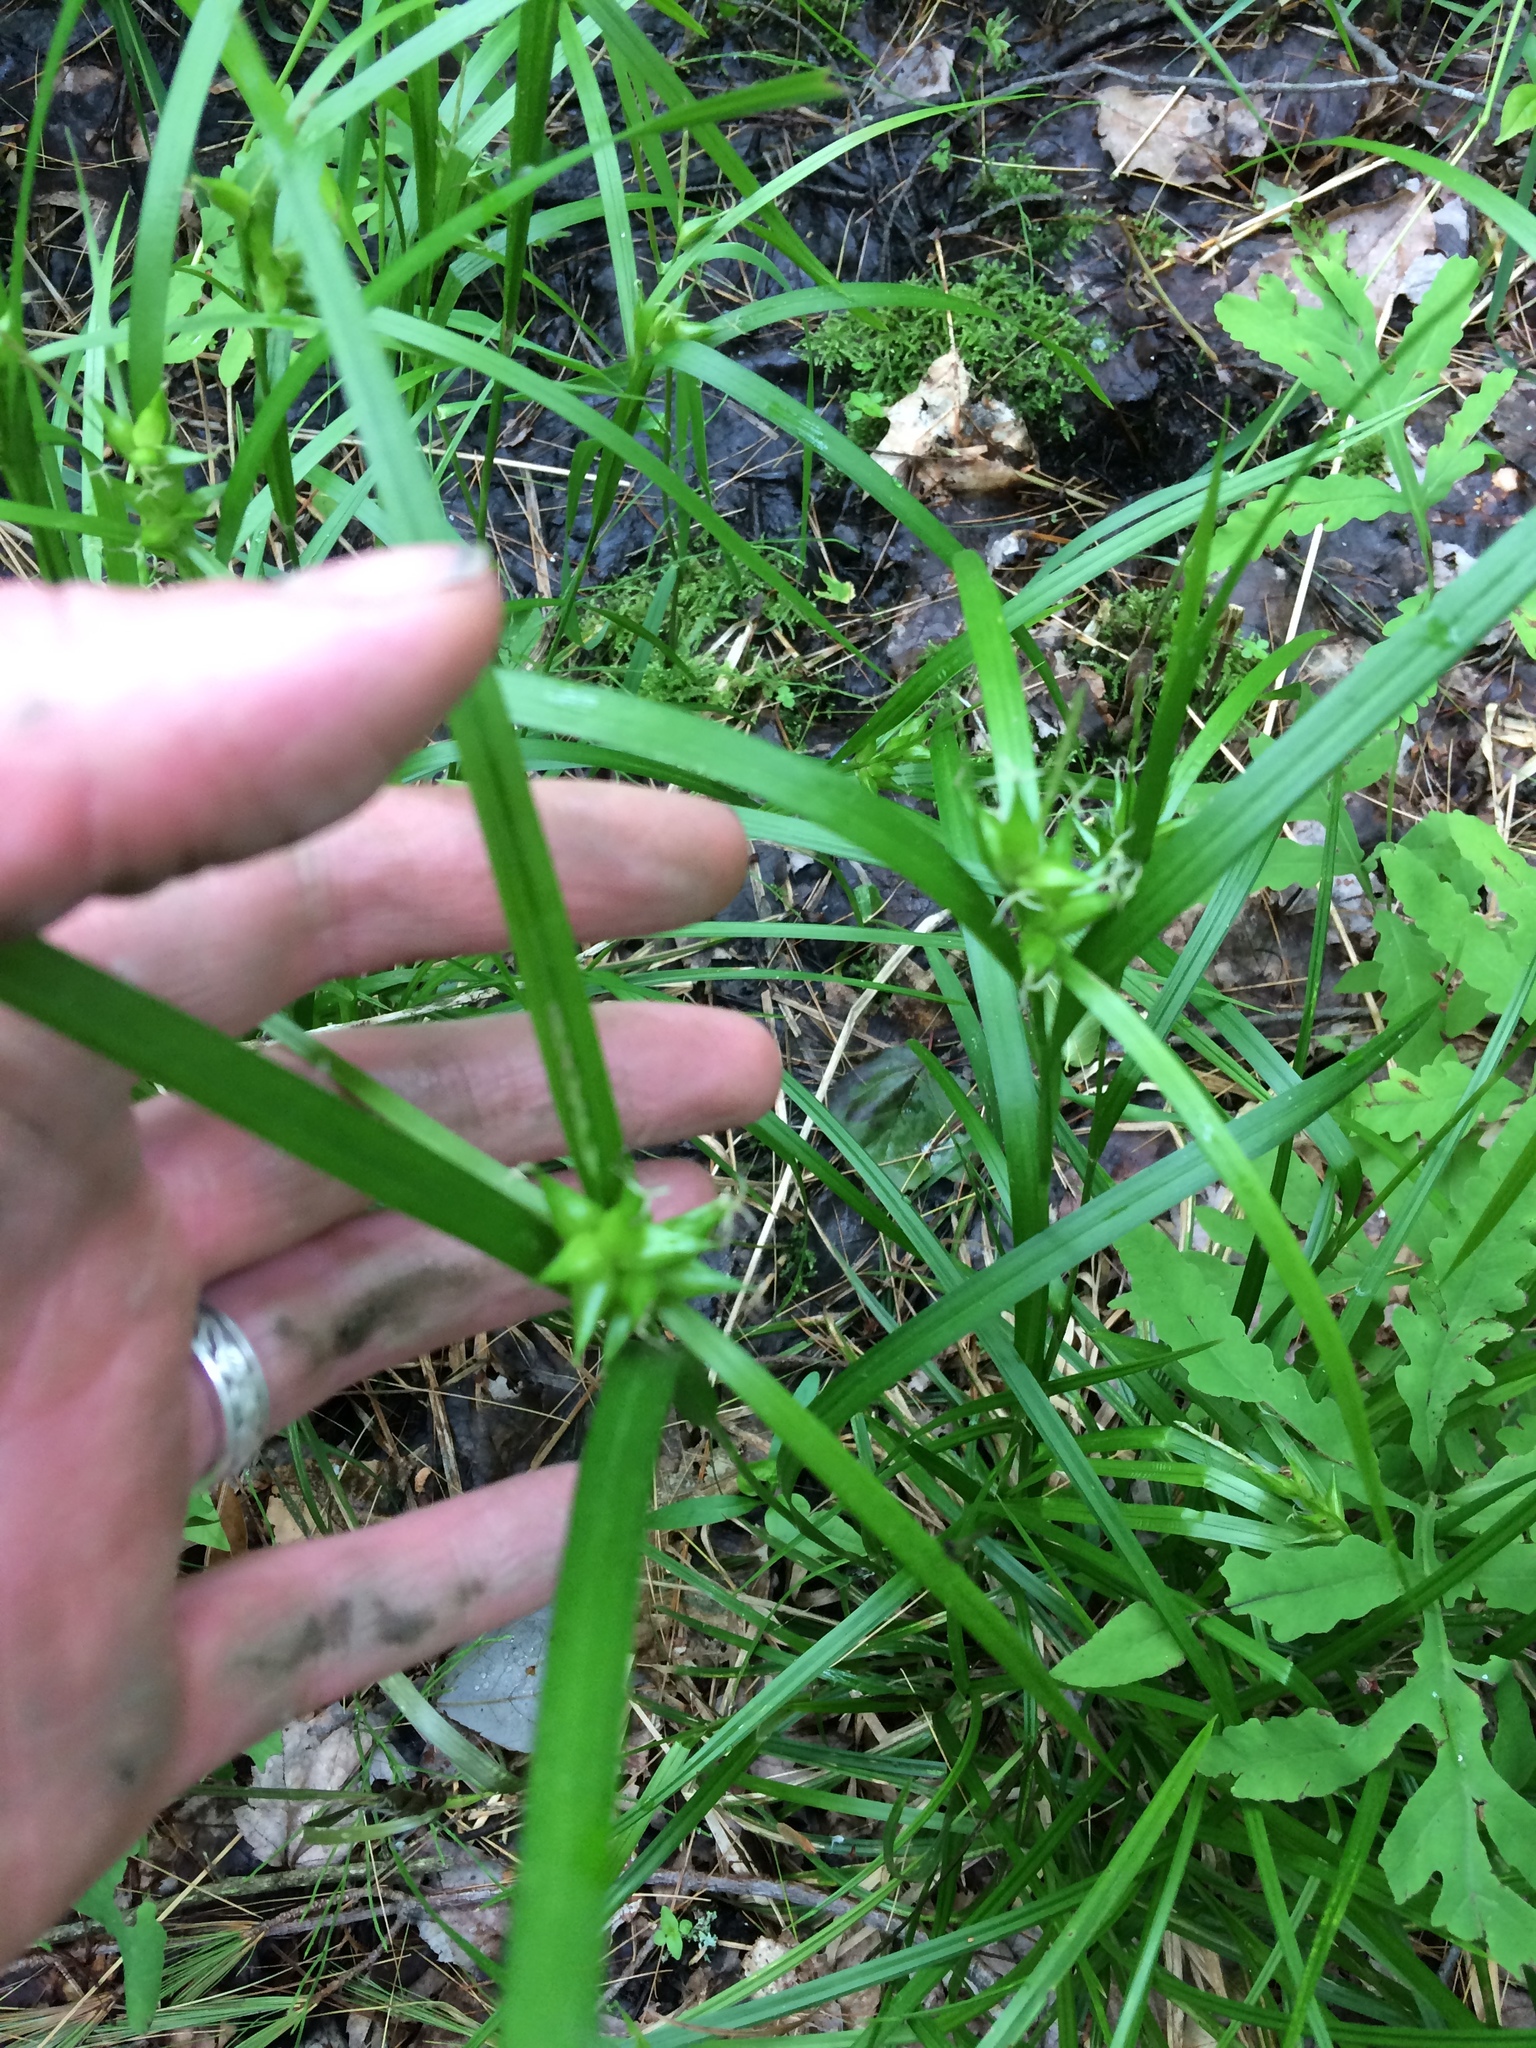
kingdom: Plantae
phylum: Tracheophyta
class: Liliopsida
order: Poales
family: Cyperaceae
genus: Carex
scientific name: Carex intumescens
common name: Greater bladder sedge
